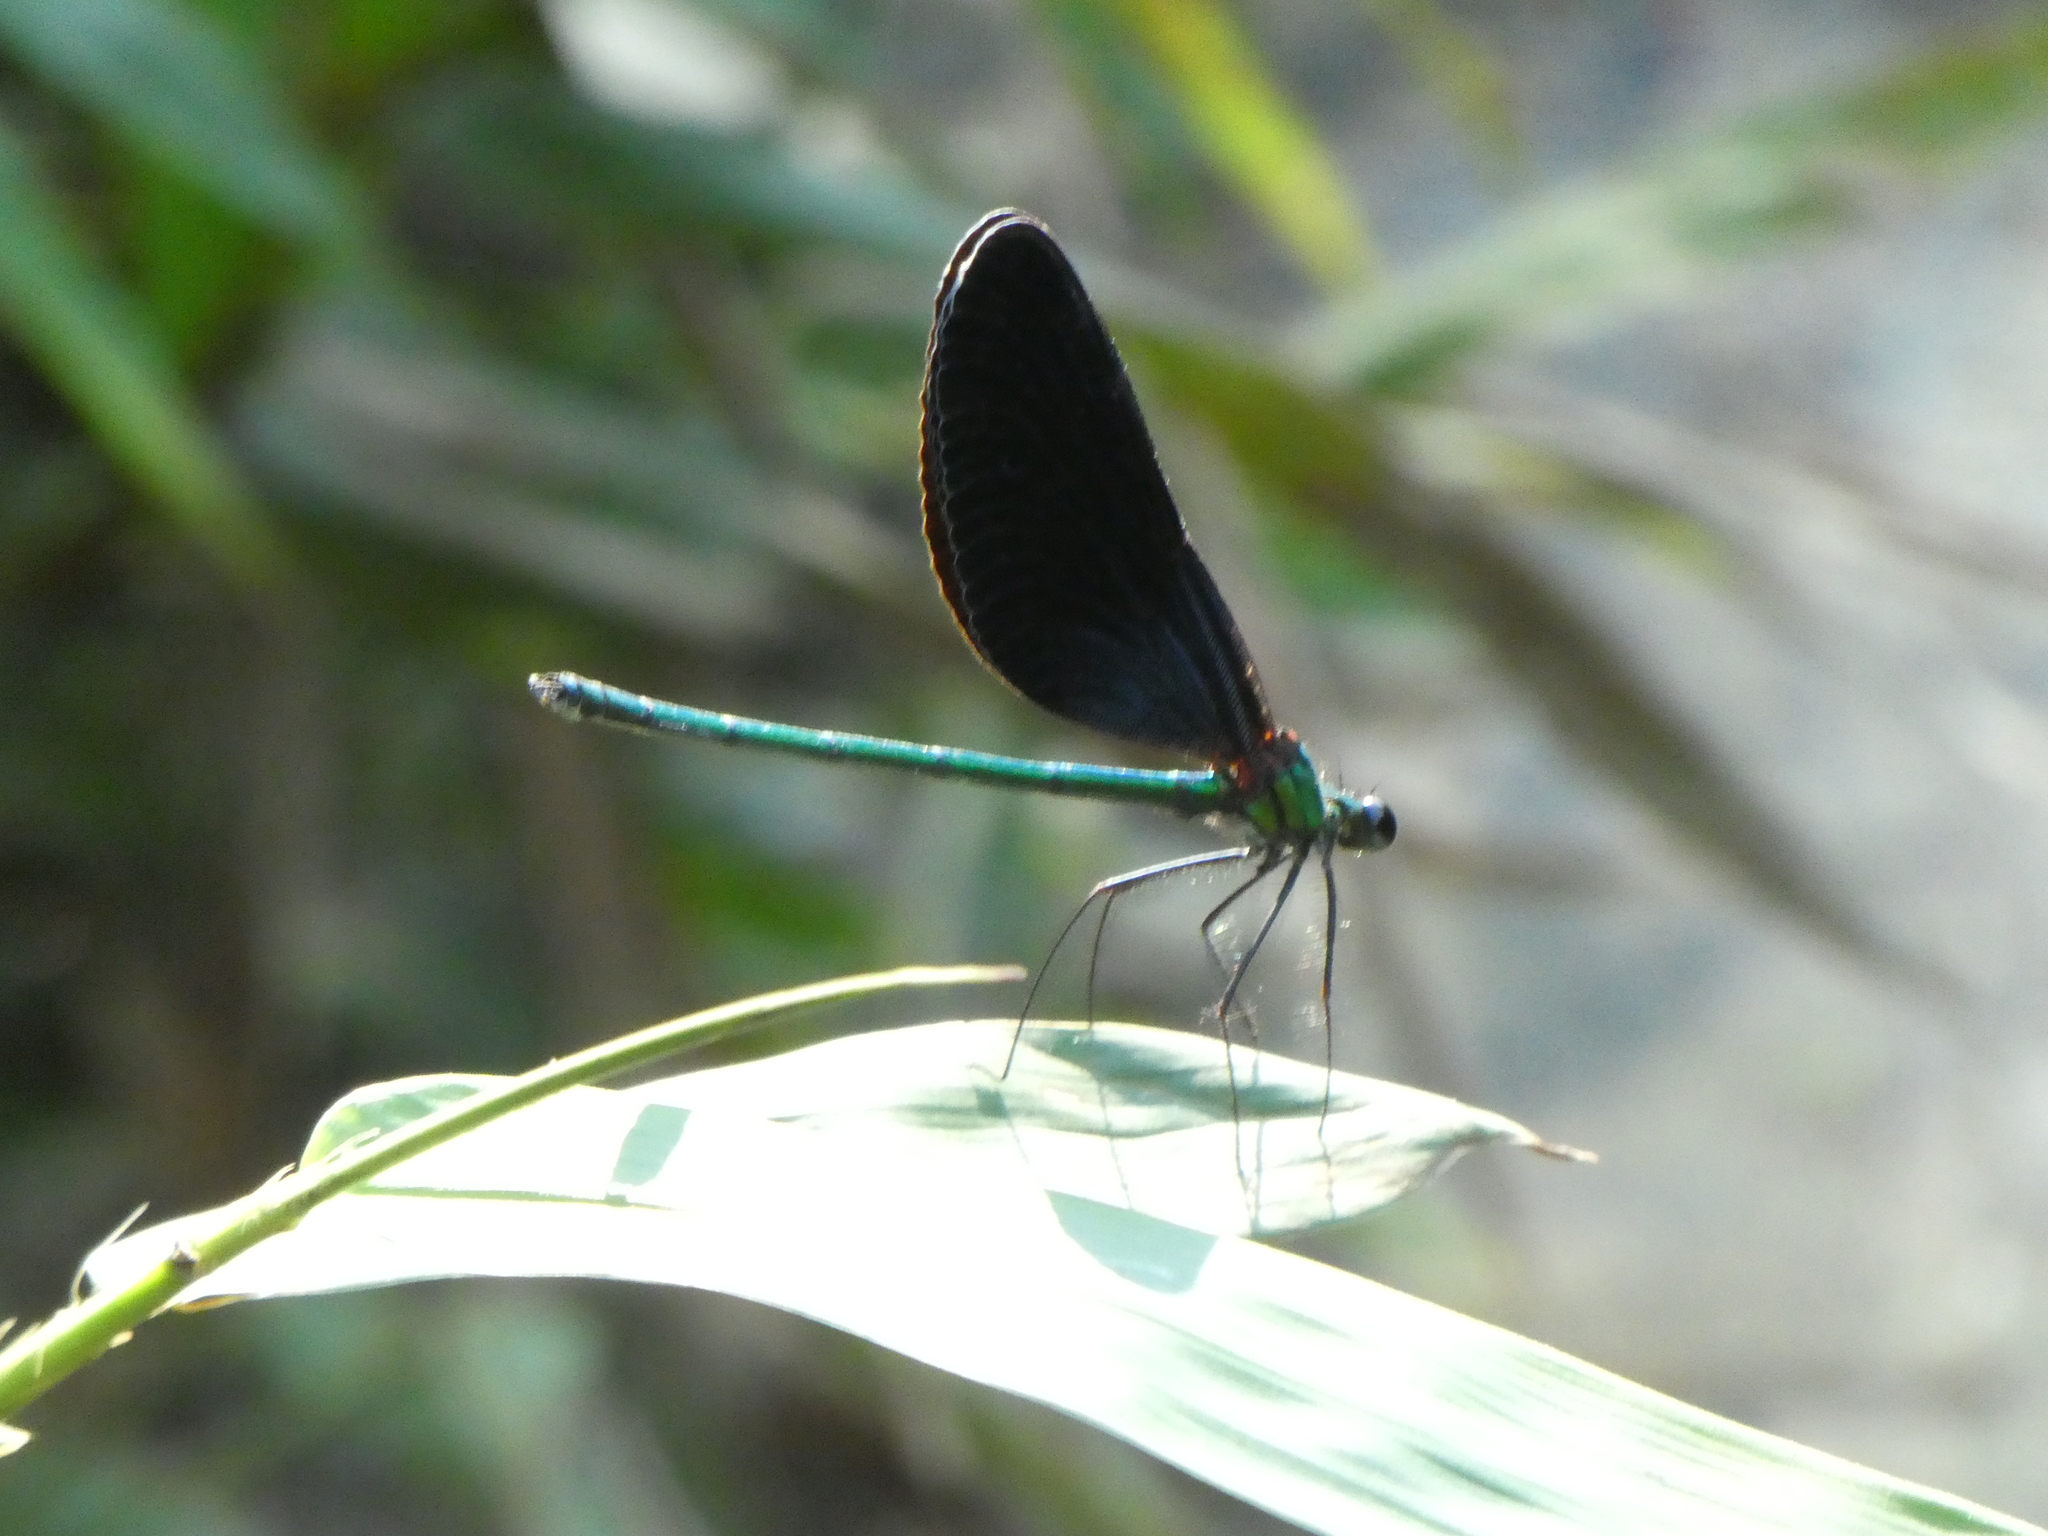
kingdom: Animalia
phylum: Arthropoda
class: Insecta
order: Odonata
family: Calopterygidae
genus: Matrona
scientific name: Matrona nigripectus
